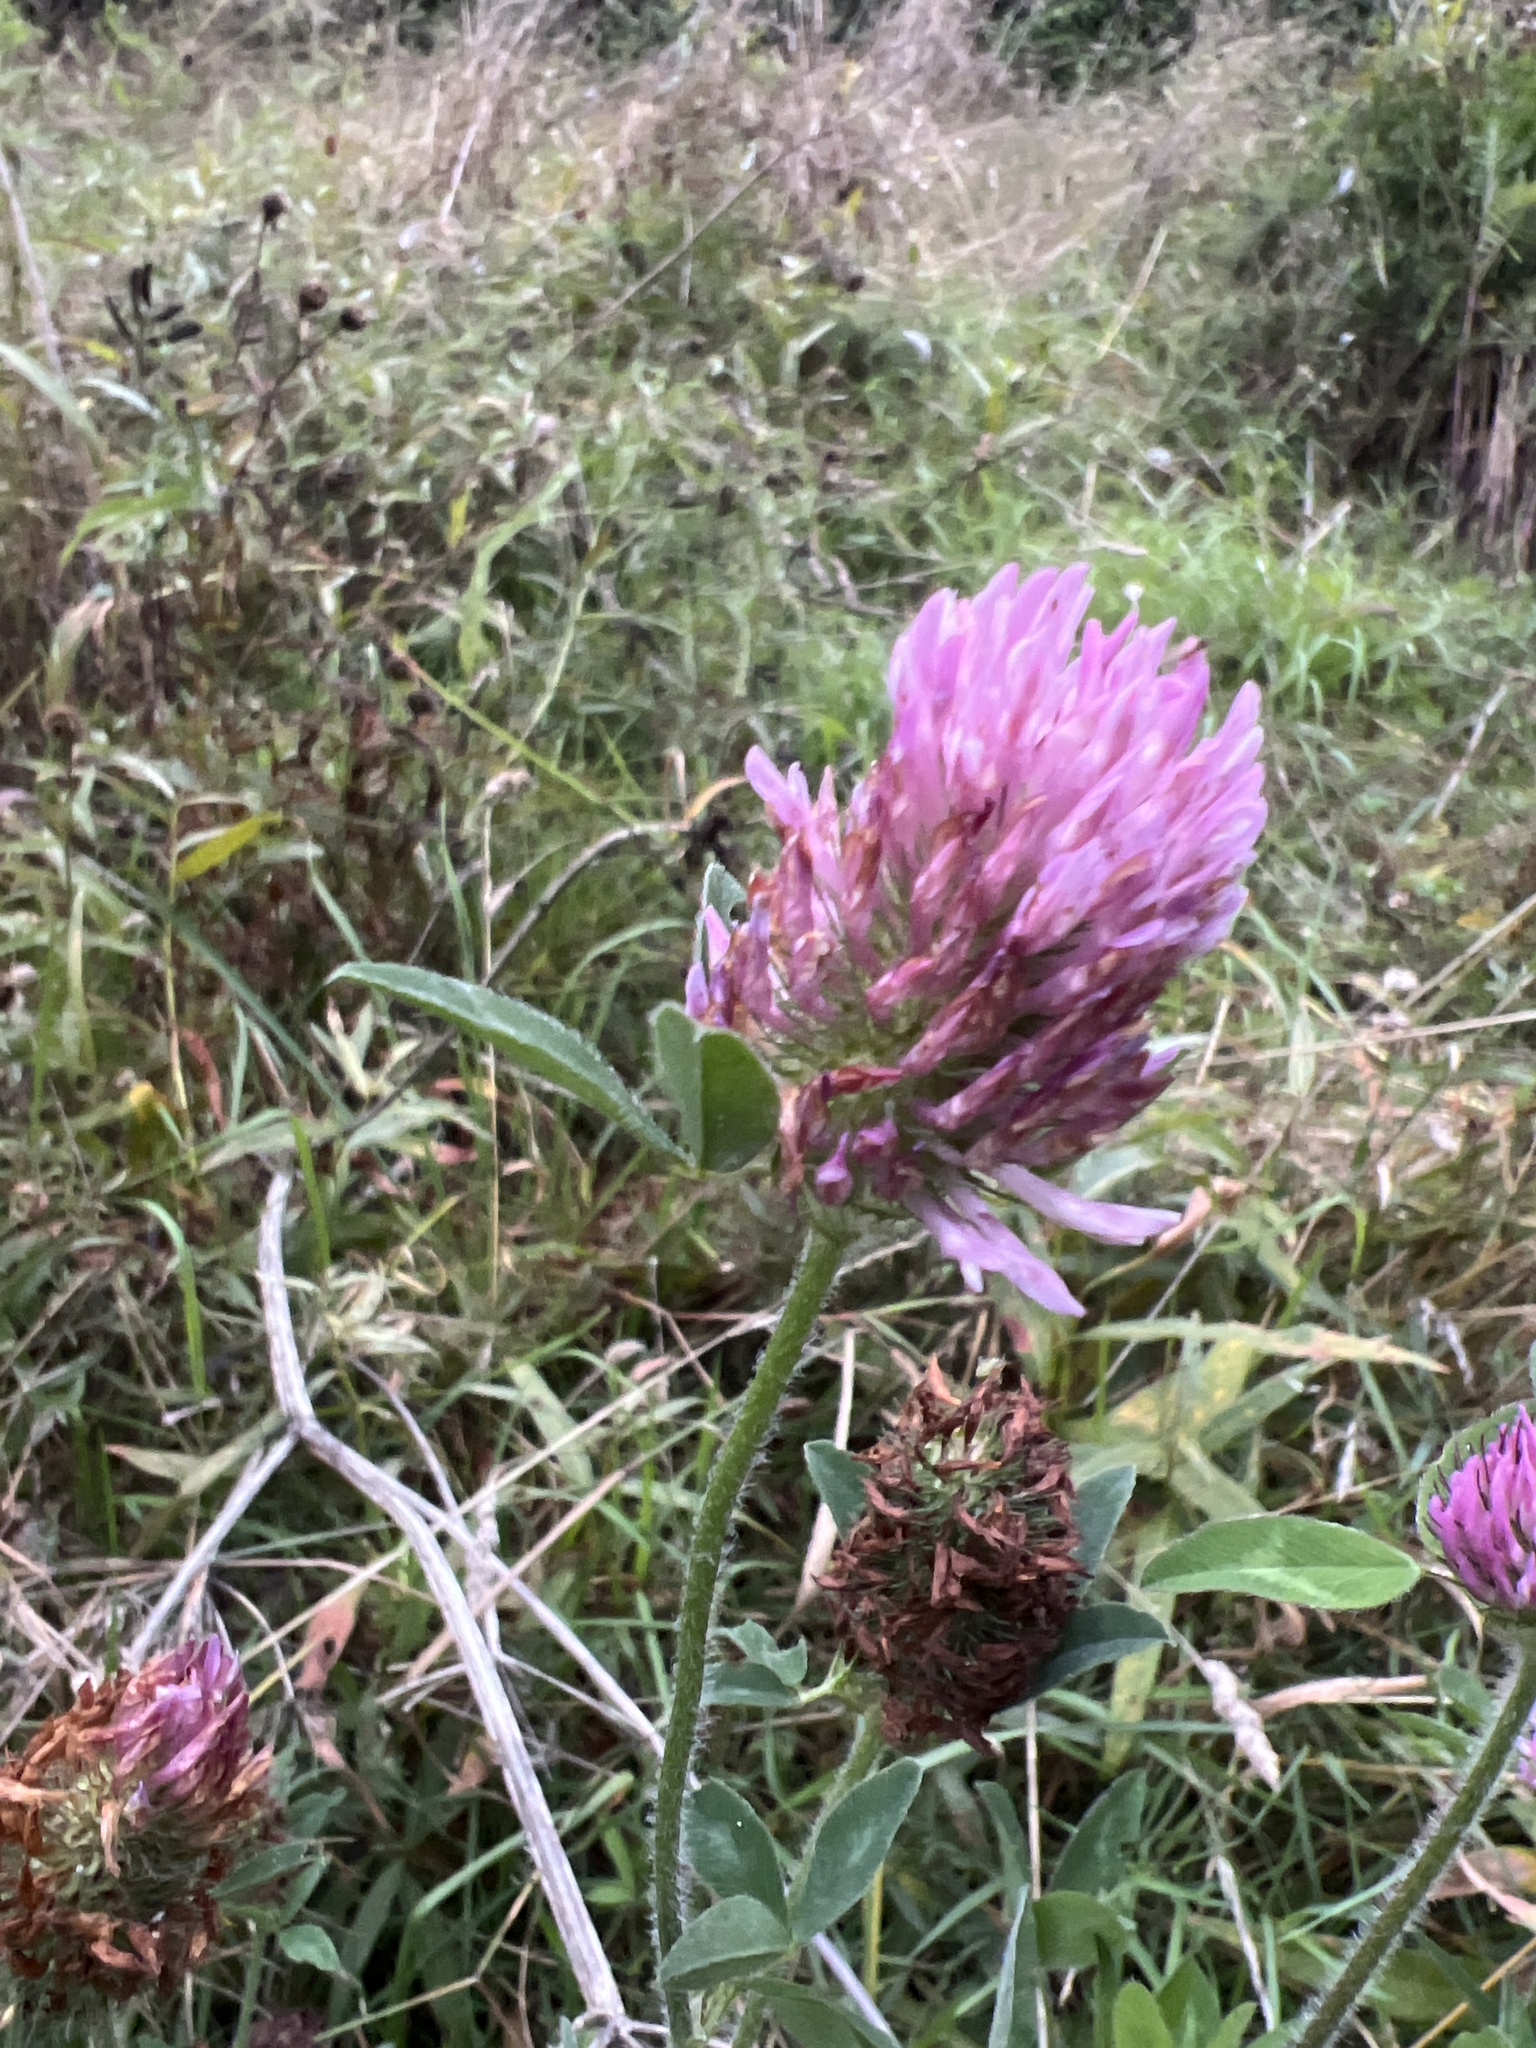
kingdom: Plantae
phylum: Tracheophyta
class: Magnoliopsida
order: Fabales
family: Fabaceae
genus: Trifolium
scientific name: Trifolium pratense
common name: Red clover
